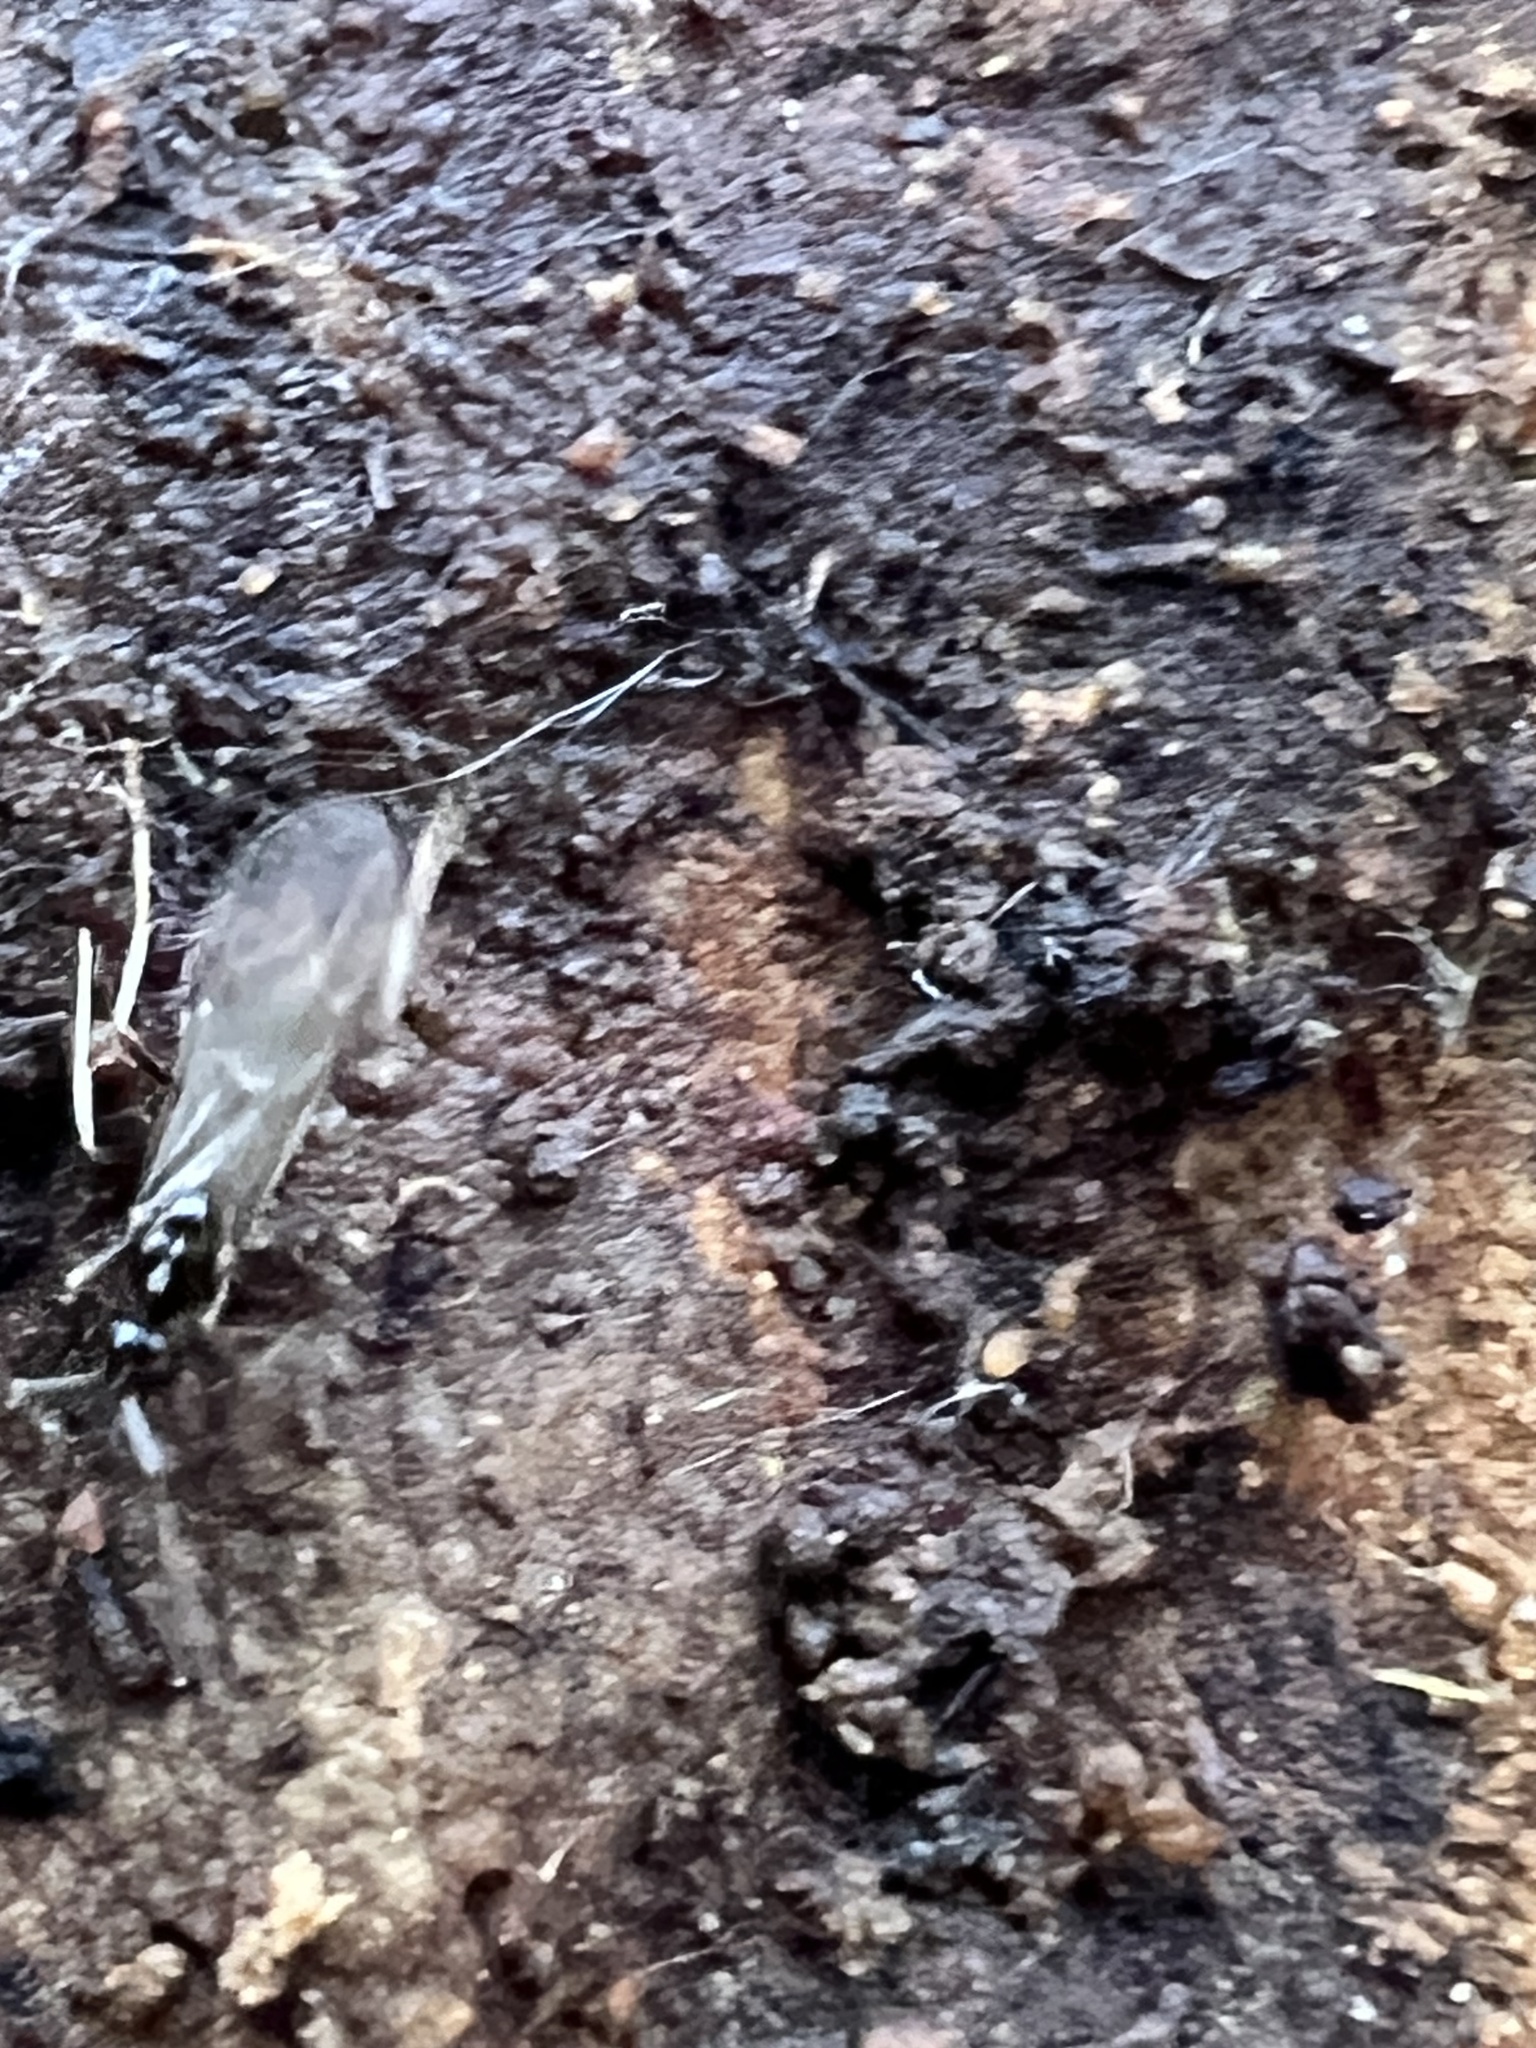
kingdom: Animalia
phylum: Arthropoda
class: Insecta
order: Hymenoptera
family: Formicidae
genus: Prenolepis
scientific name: Prenolepis imparis
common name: Small honey ant
